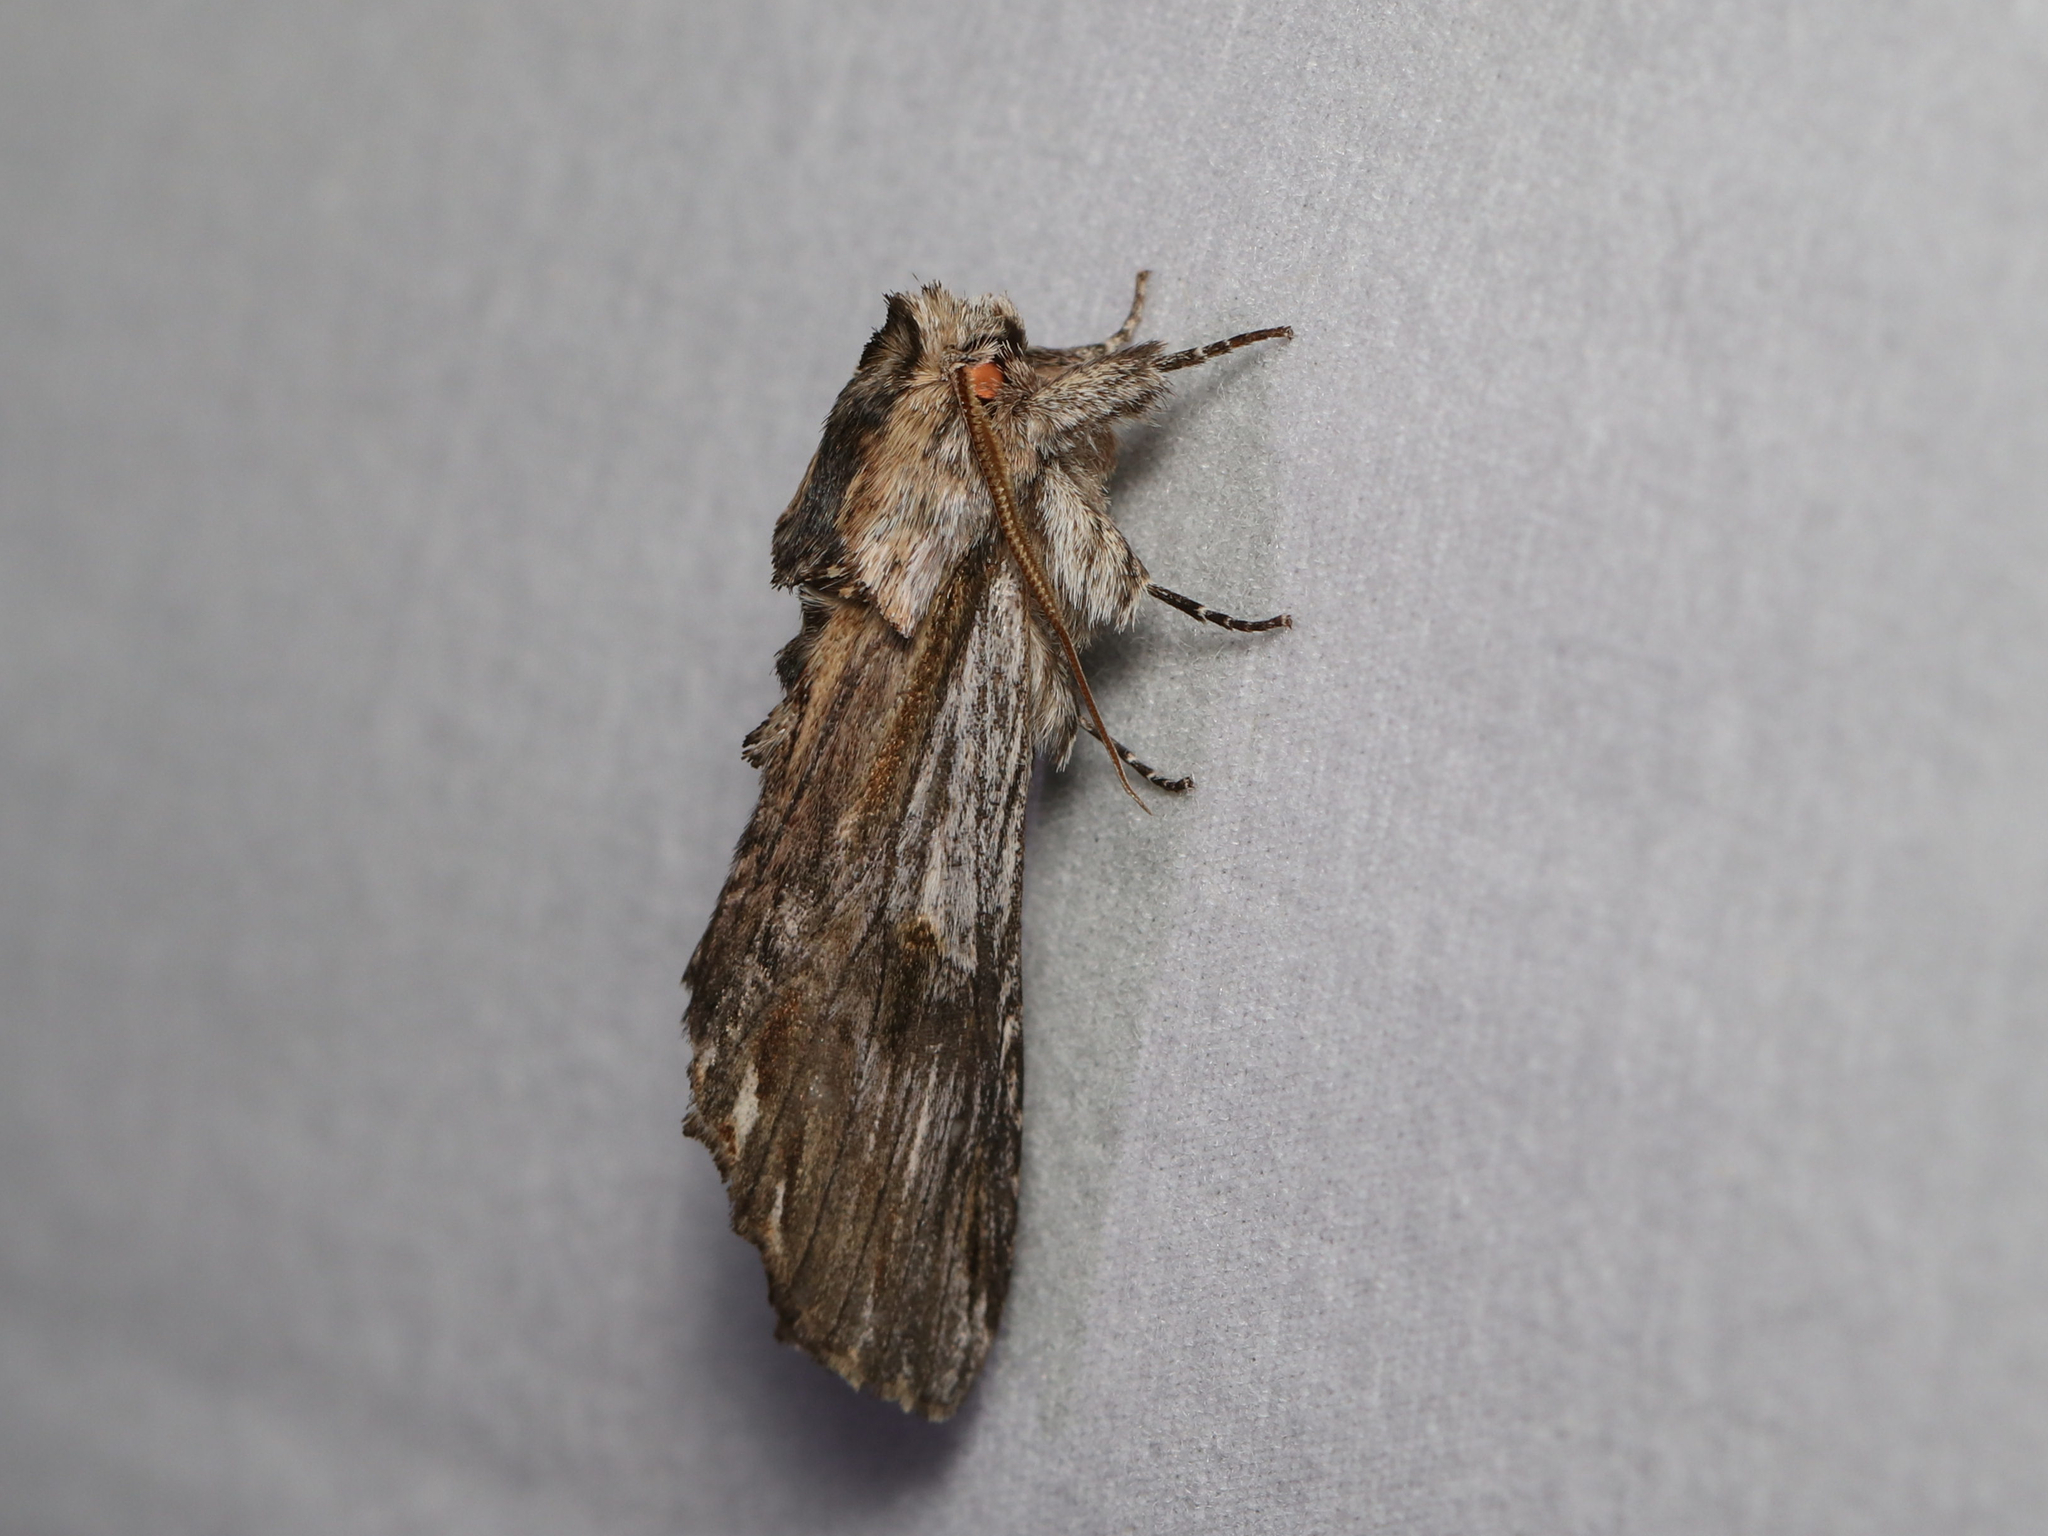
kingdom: Animalia
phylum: Arthropoda
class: Insecta
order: Lepidoptera
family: Notodontidae
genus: Oligocentria
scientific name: Oligocentria Ianassa lignicolor
